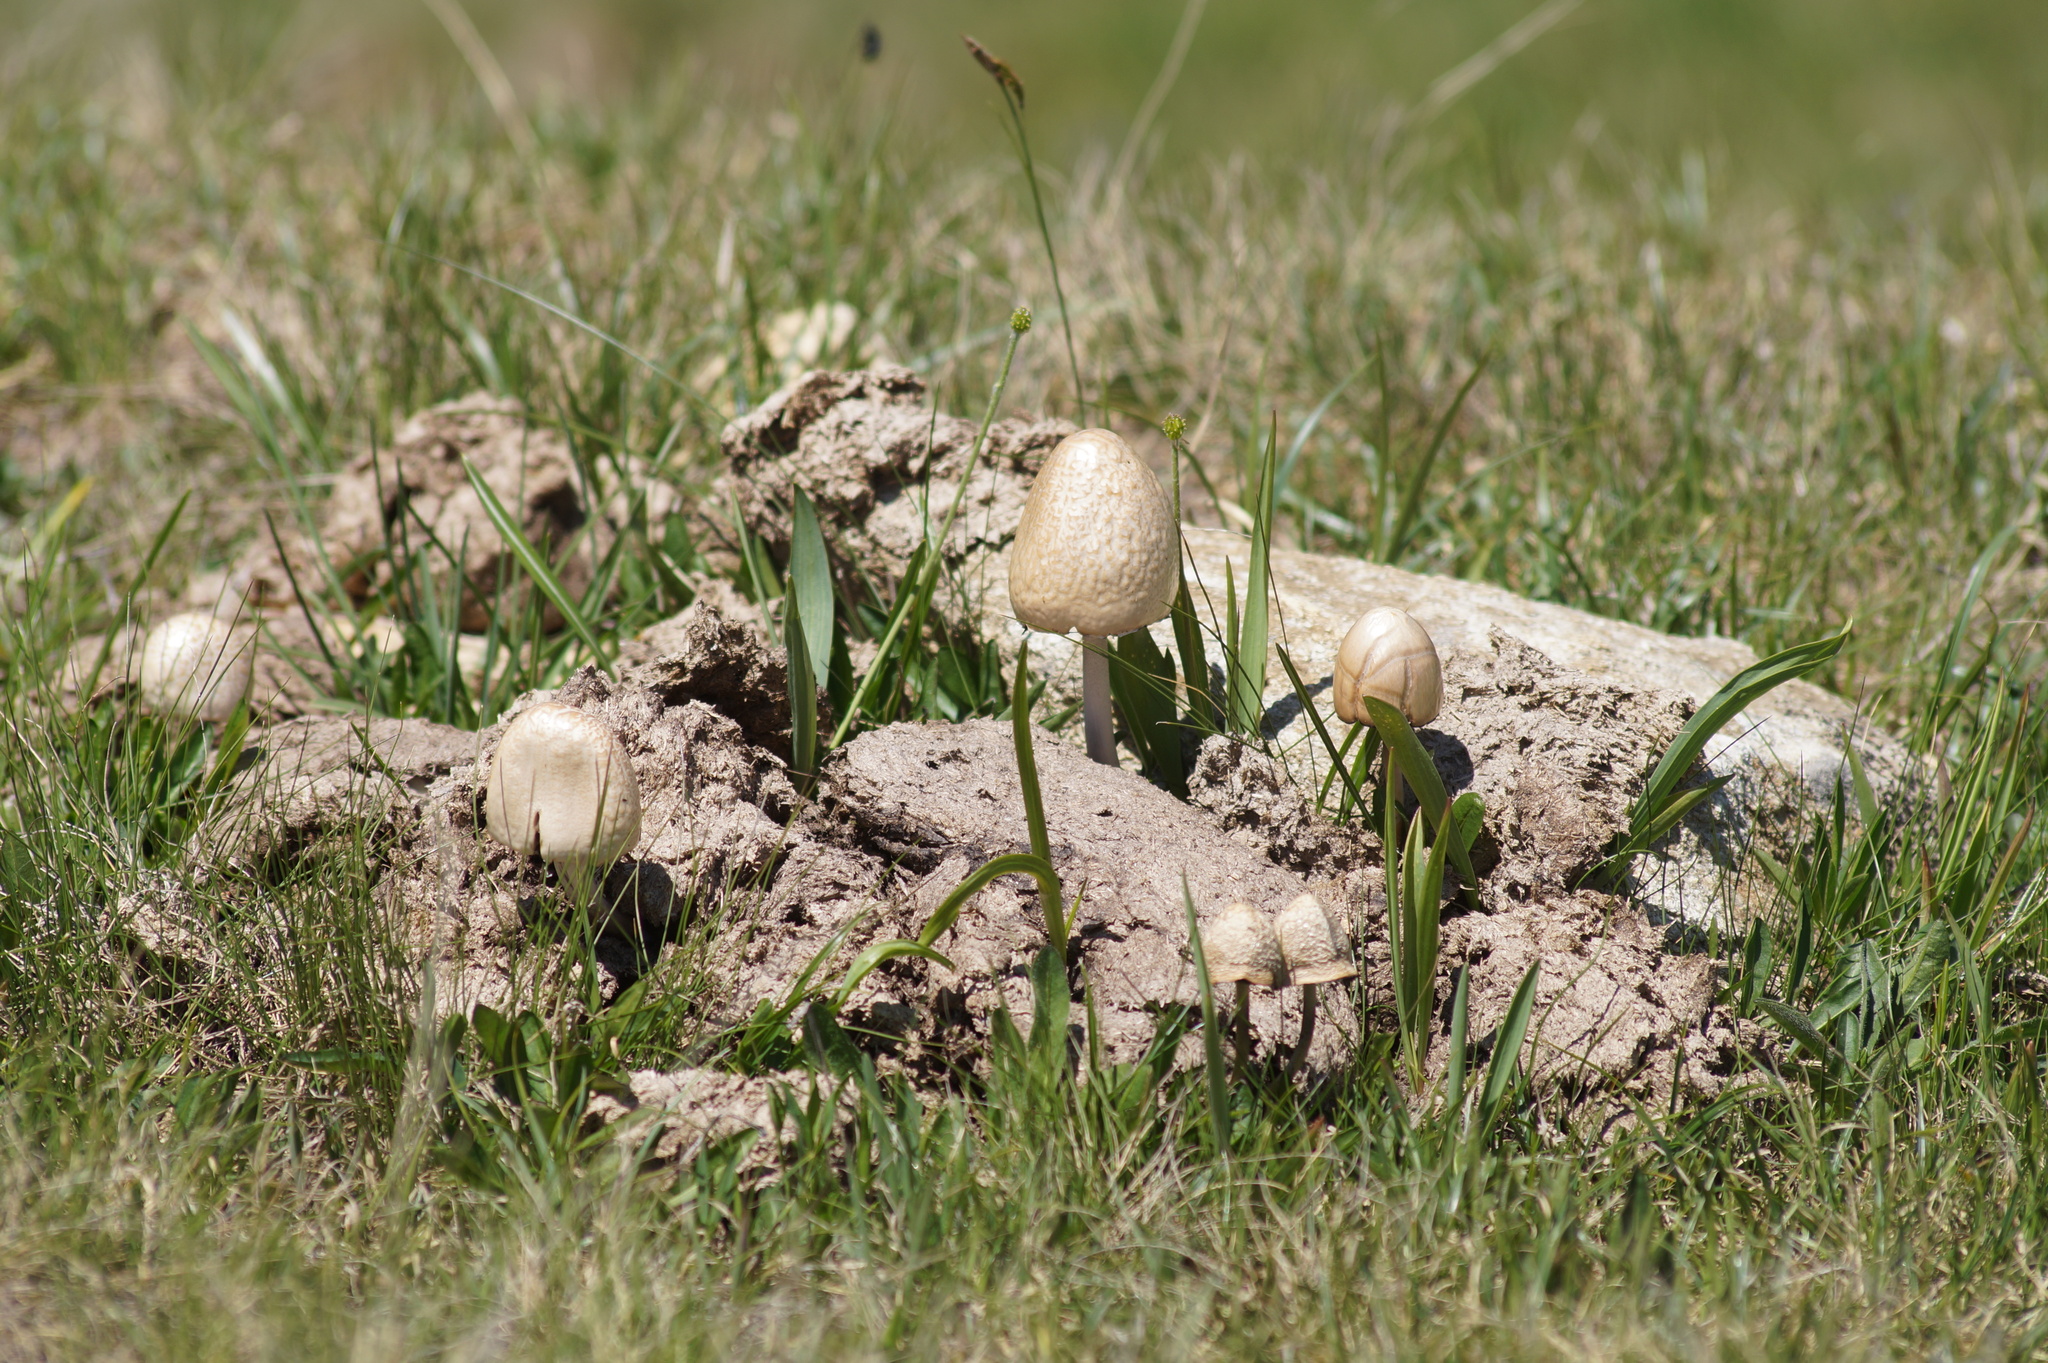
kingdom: Fungi
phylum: Basidiomycota
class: Agaricomycetes
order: Agaricales
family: Bolbitiaceae
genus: Panaeolus
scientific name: Panaeolus semiovatus
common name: Shiny mottlegill
